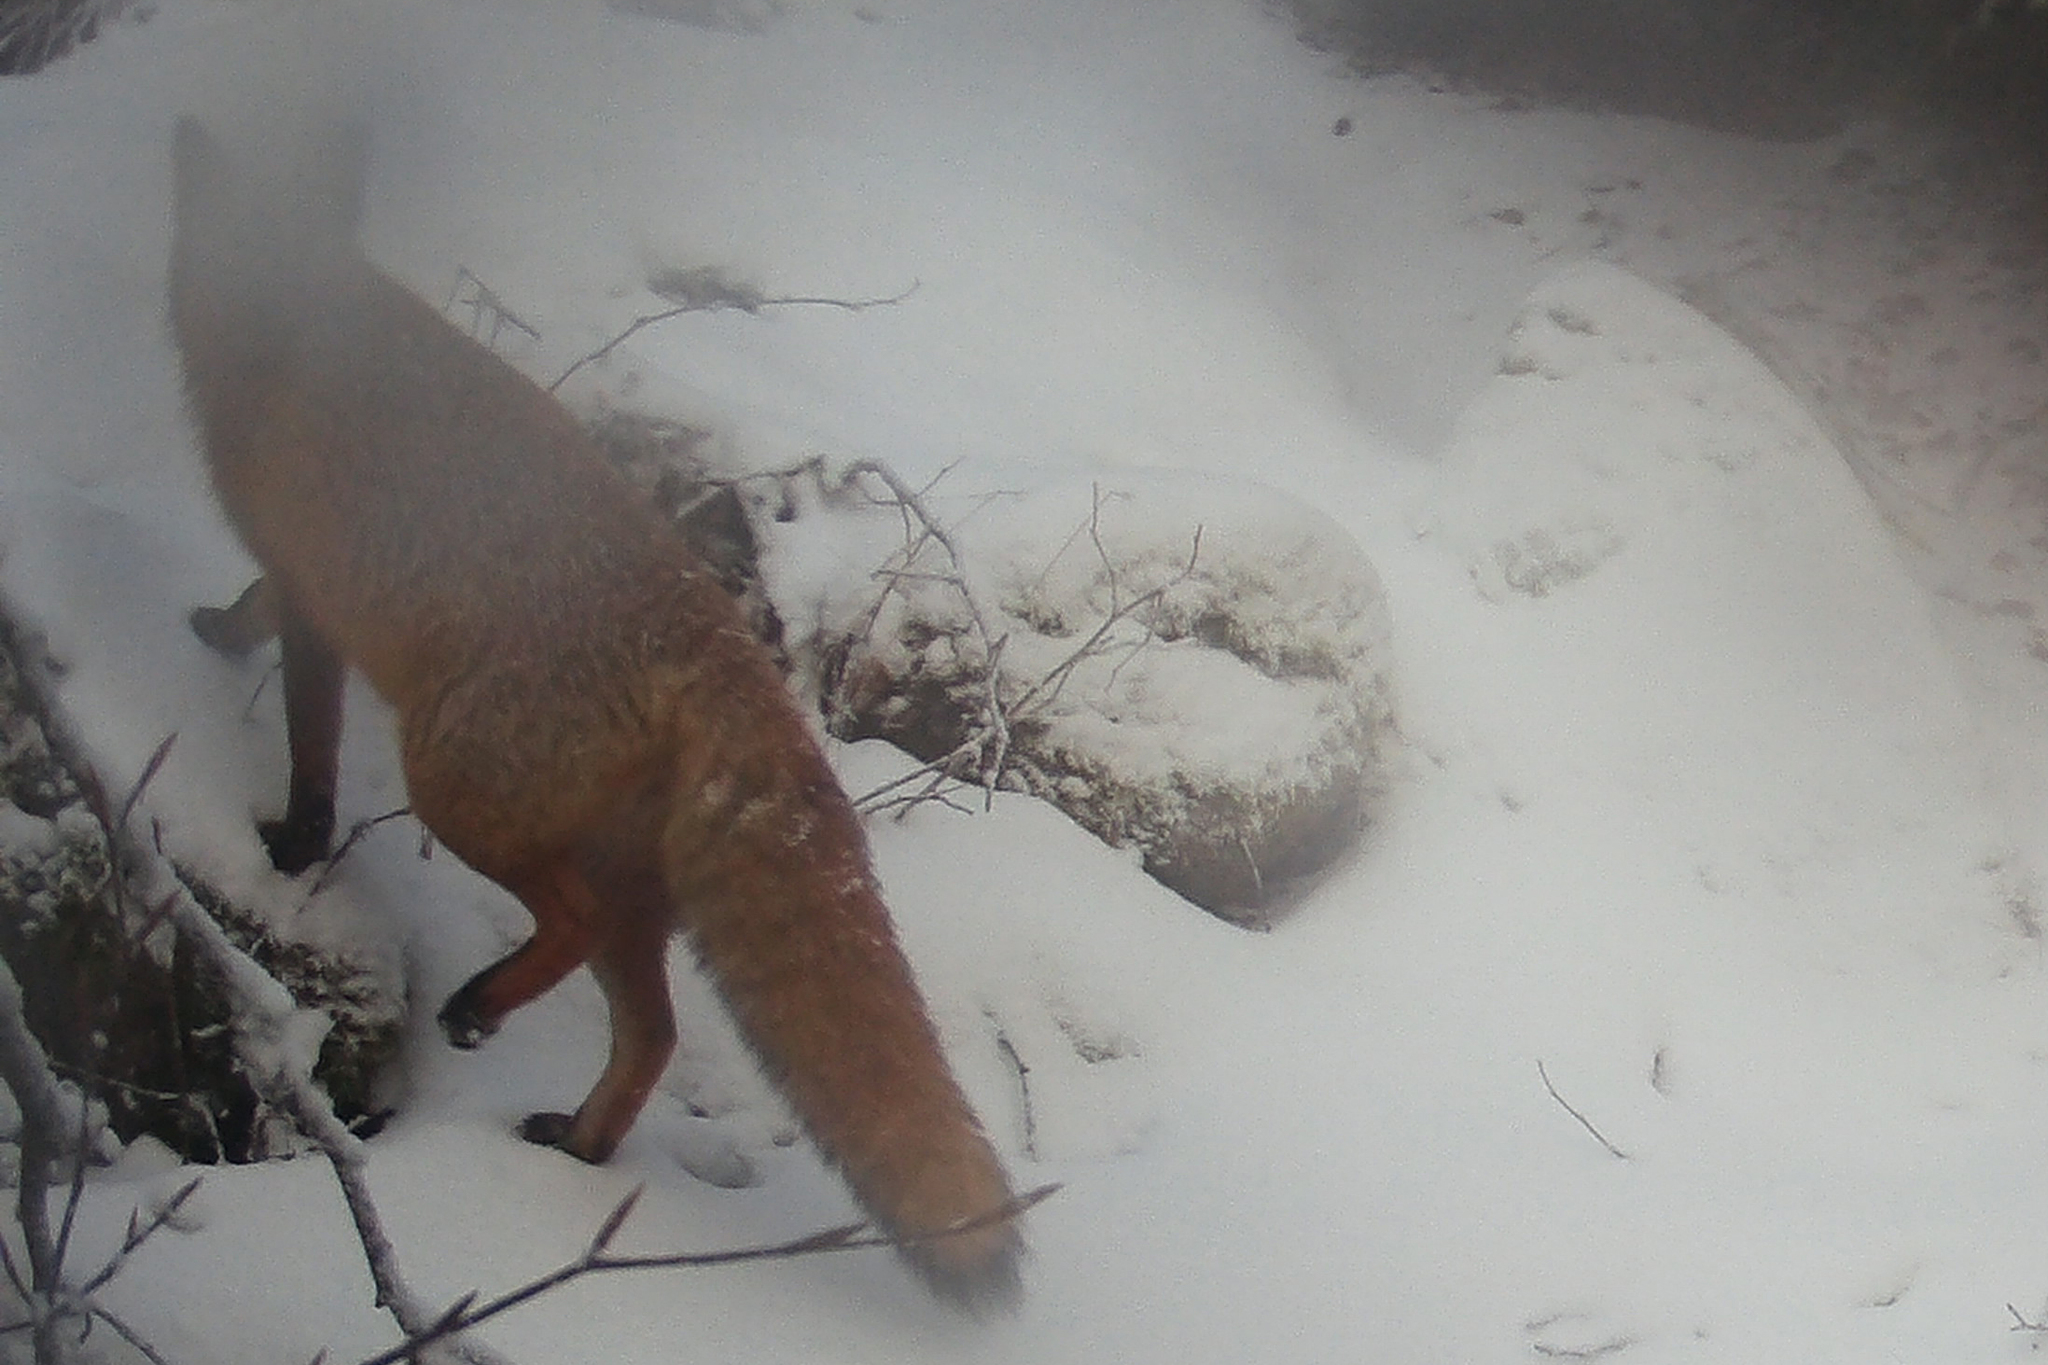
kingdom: Animalia
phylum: Chordata
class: Mammalia
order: Carnivora
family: Canidae
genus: Vulpes
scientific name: Vulpes vulpes
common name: Red fox
